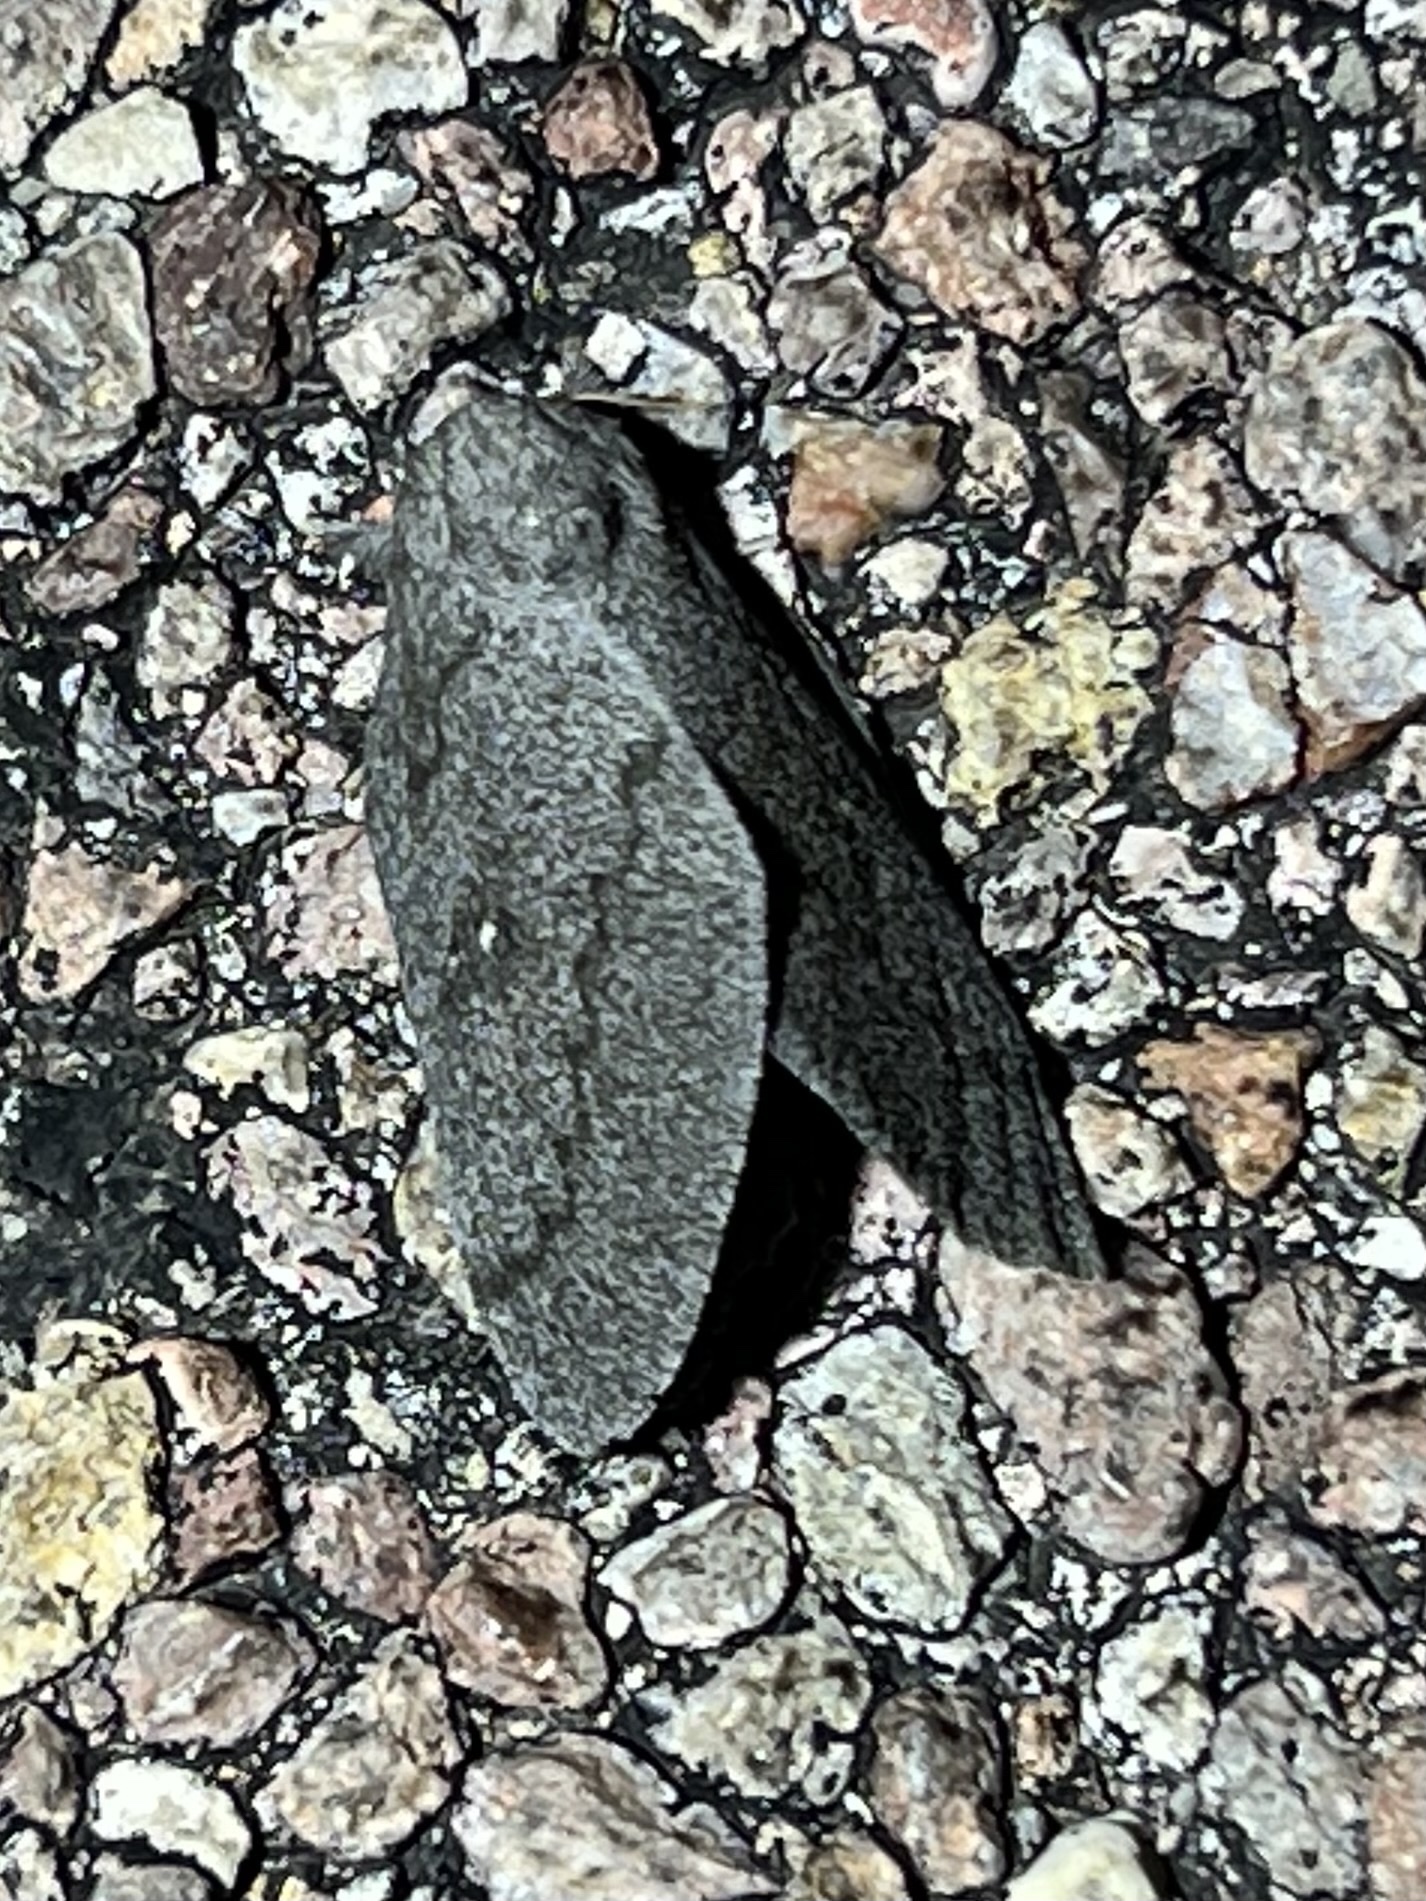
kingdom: Animalia
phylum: Arthropoda
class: Insecta
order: Lepidoptera
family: Saturniidae
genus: Syssphinx
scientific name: Syssphinx hubbardi
